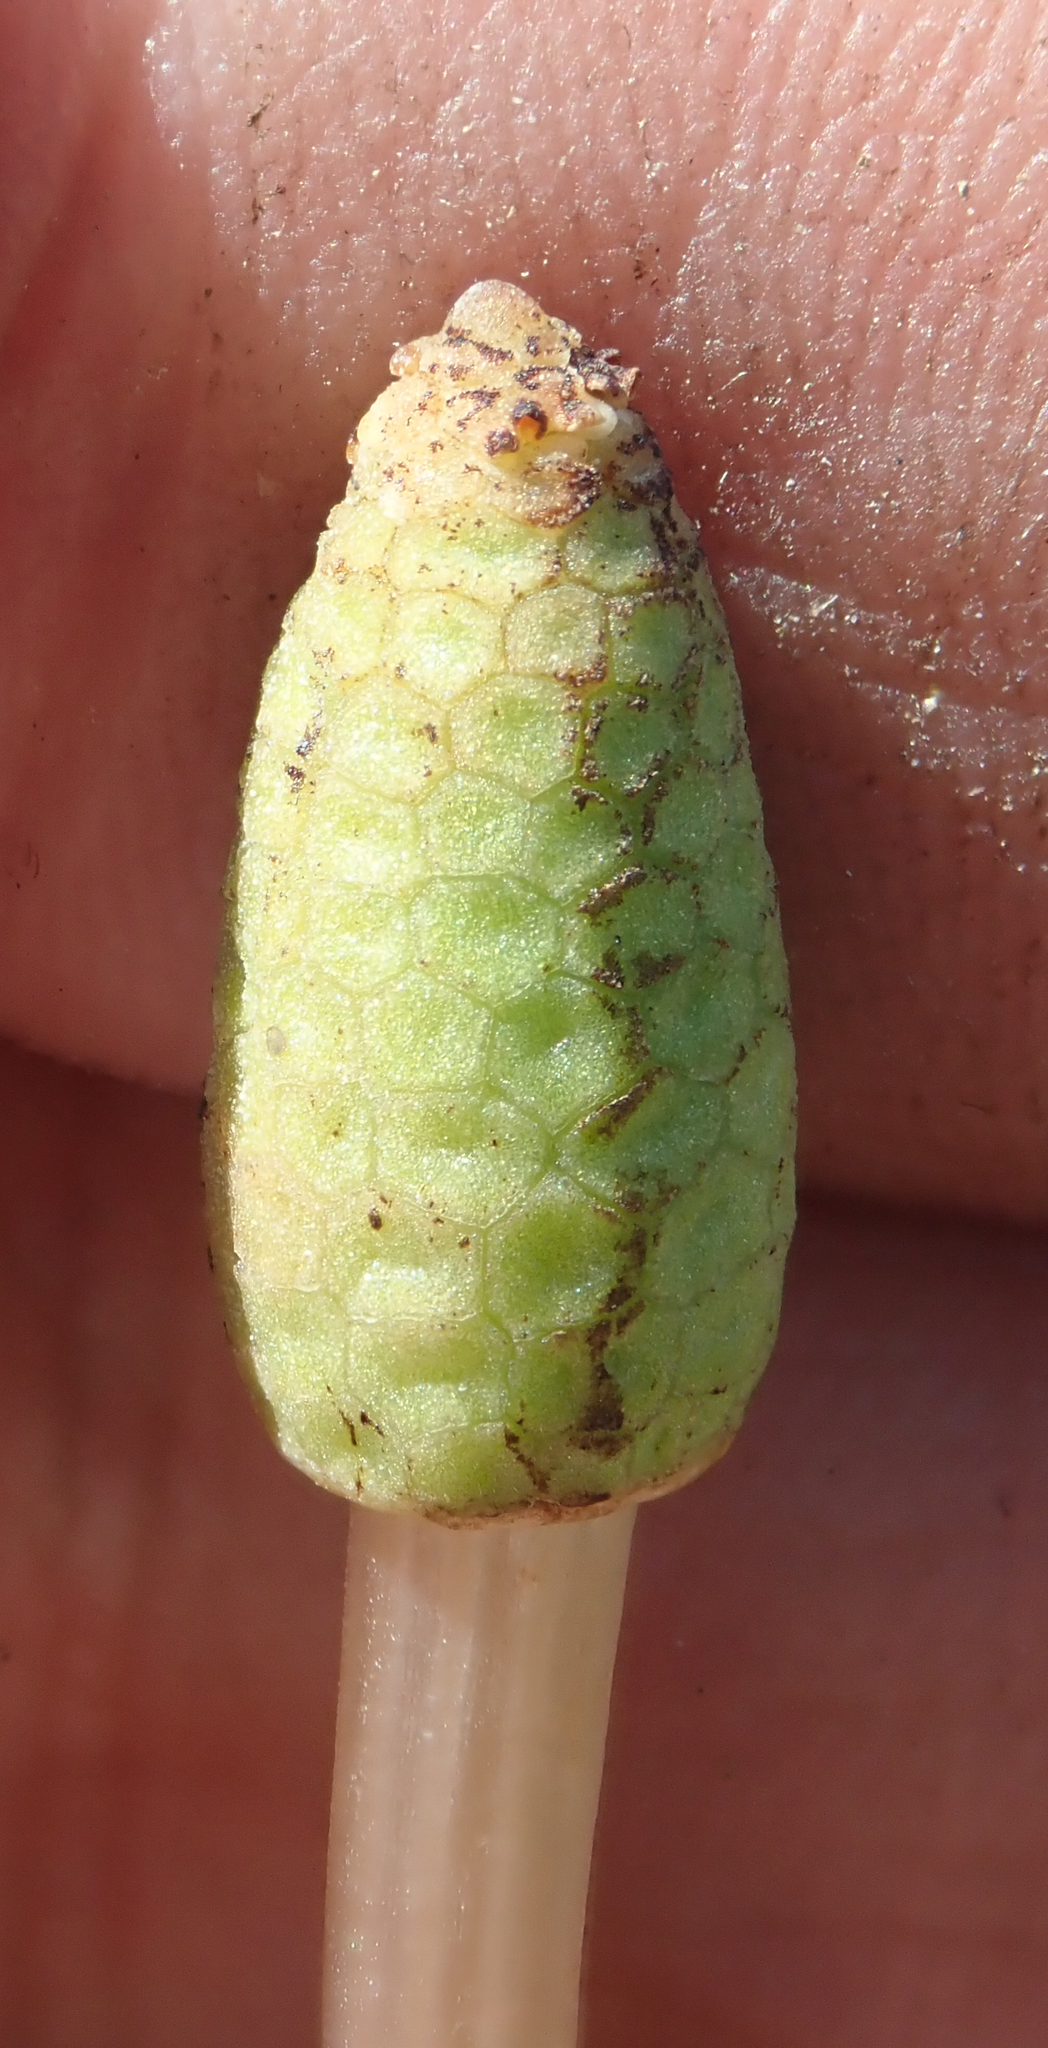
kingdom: Plantae
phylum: Tracheophyta
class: Polypodiopsida
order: Equisetales
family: Equisetaceae
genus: Equisetum
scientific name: Equisetum arvense
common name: Field horsetail
